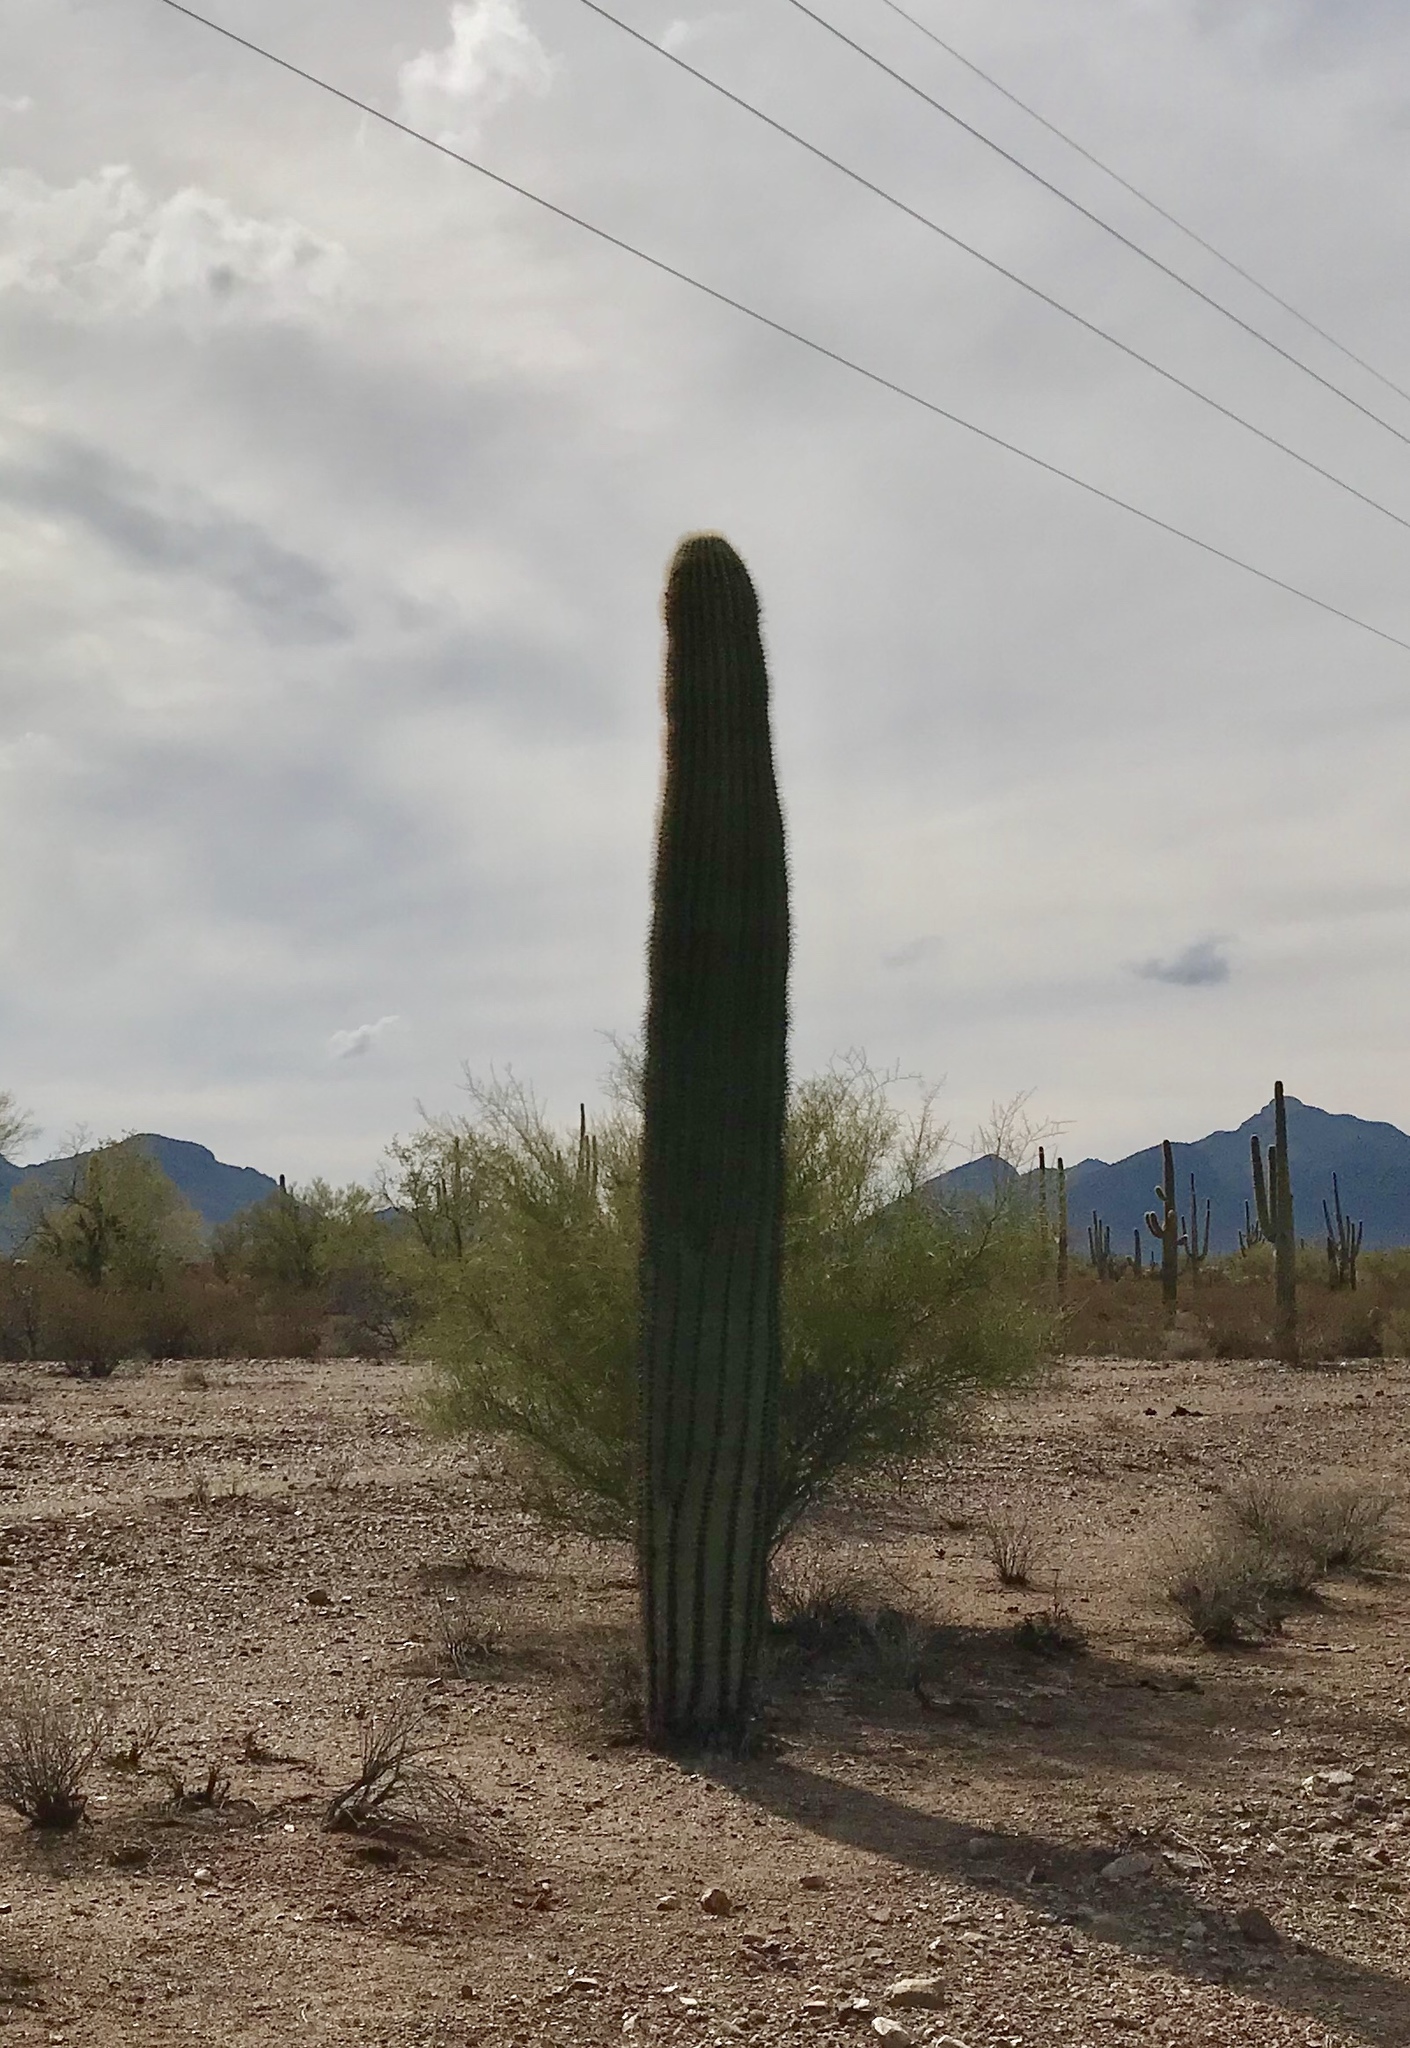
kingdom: Plantae
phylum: Tracheophyta
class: Magnoliopsida
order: Caryophyllales
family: Cactaceae
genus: Carnegiea
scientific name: Carnegiea gigantea
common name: Saguaro
